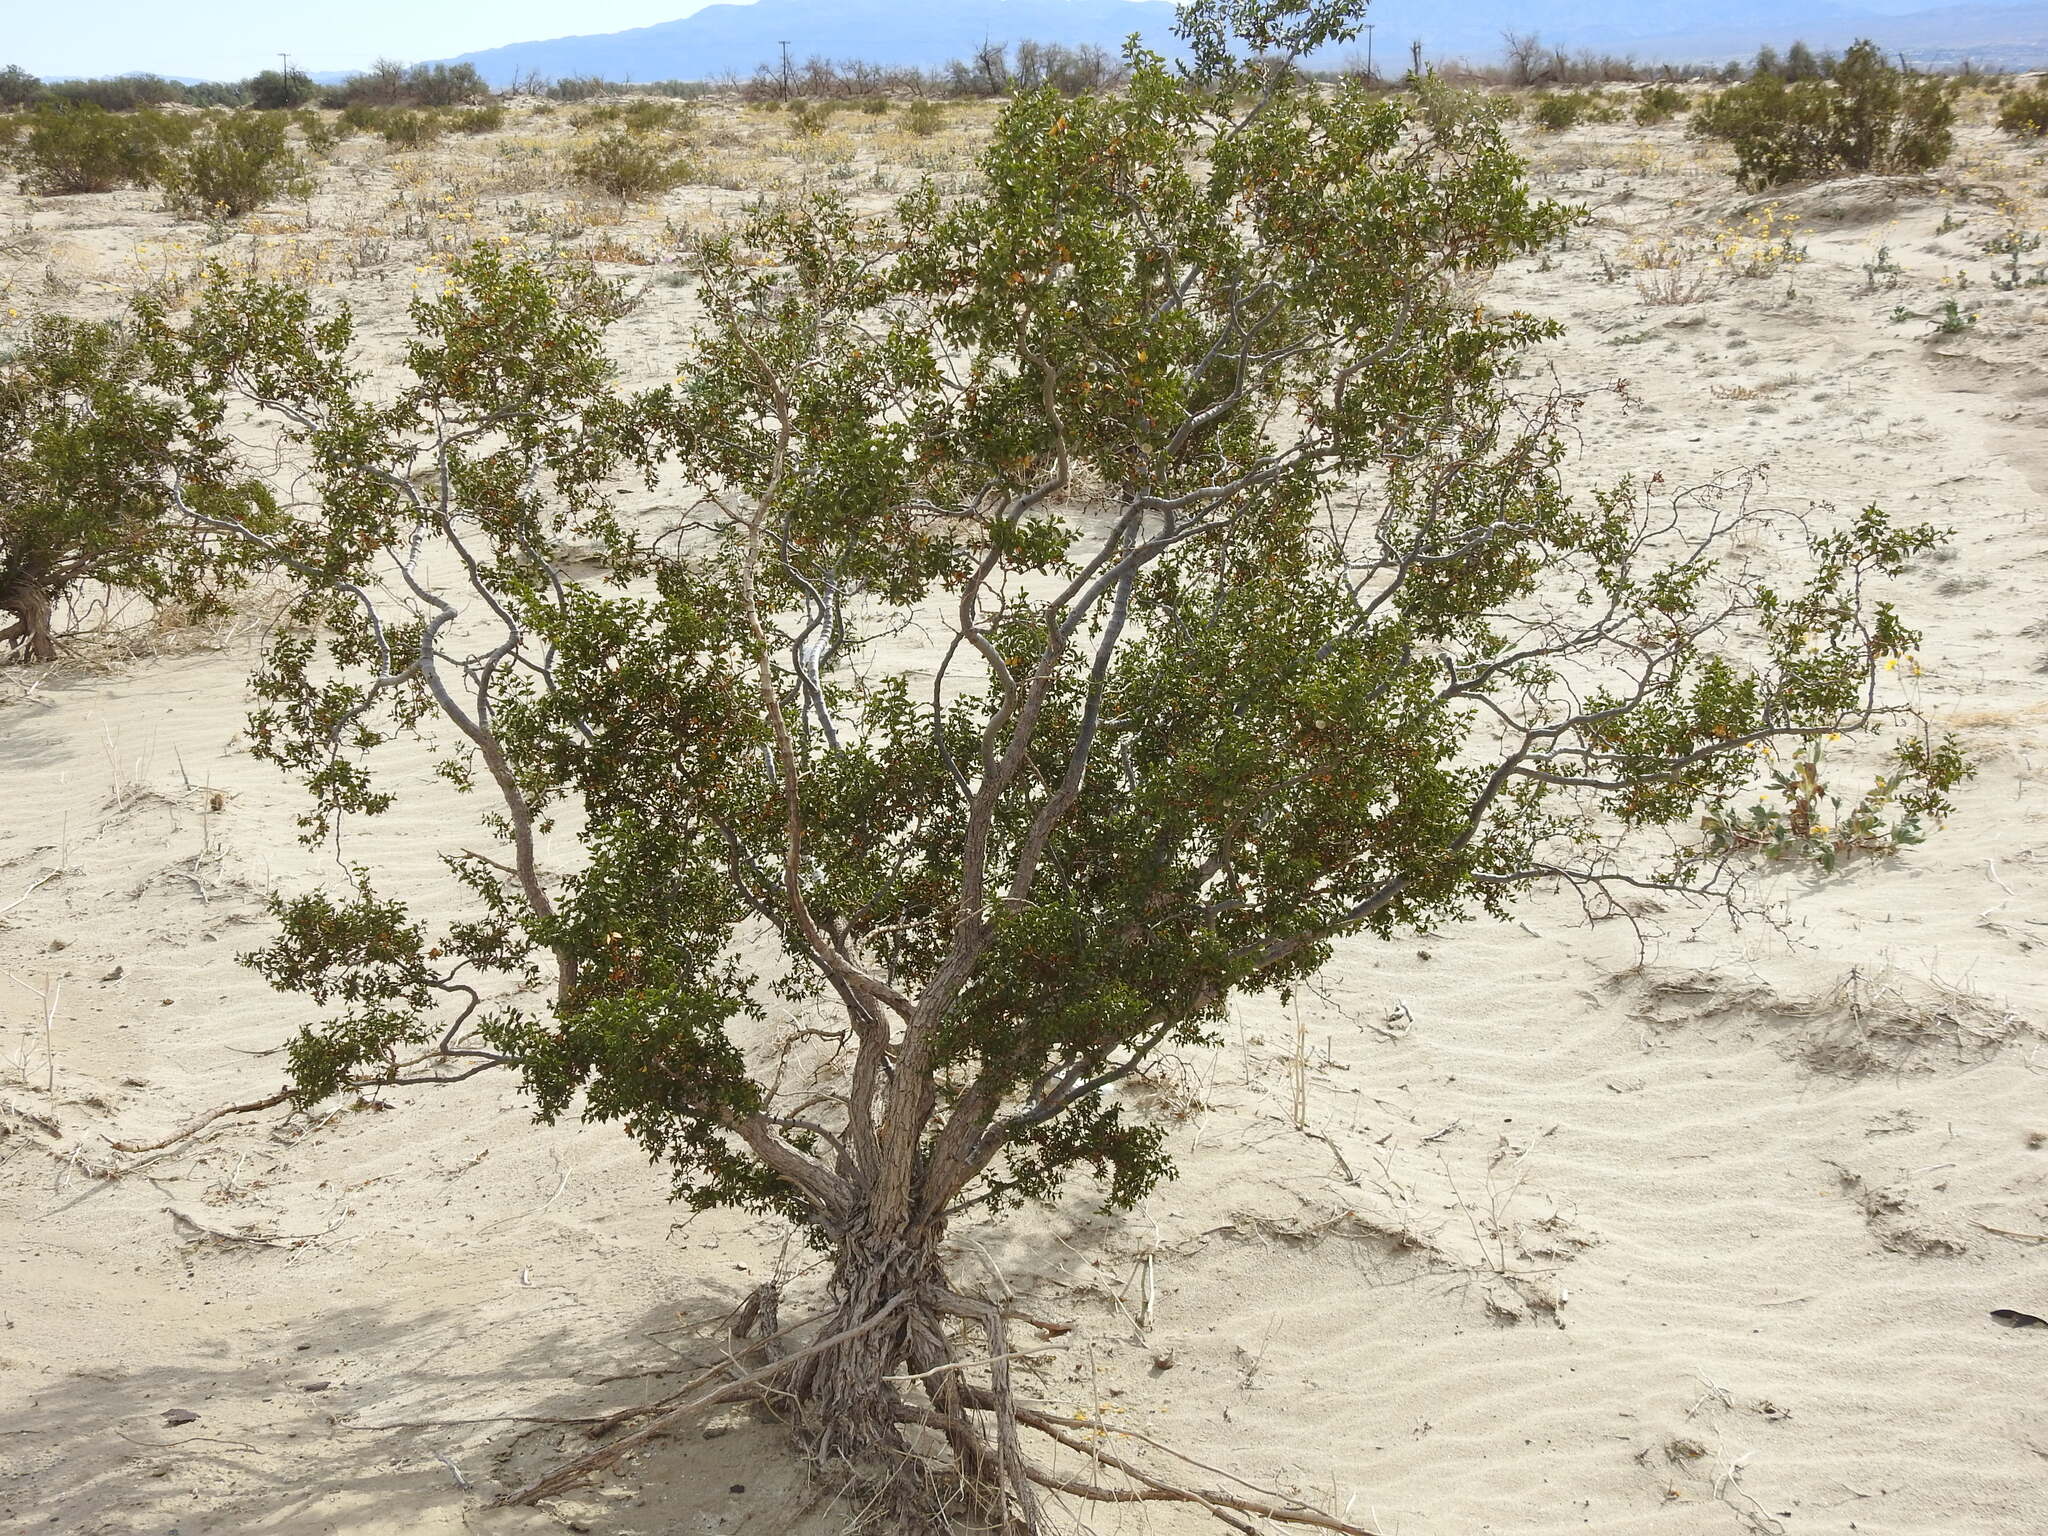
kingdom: Plantae
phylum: Tracheophyta
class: Magnoliopsida
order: Zygophyllales
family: Zygophyllaceae
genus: Larrea
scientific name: Larrea tridentata
